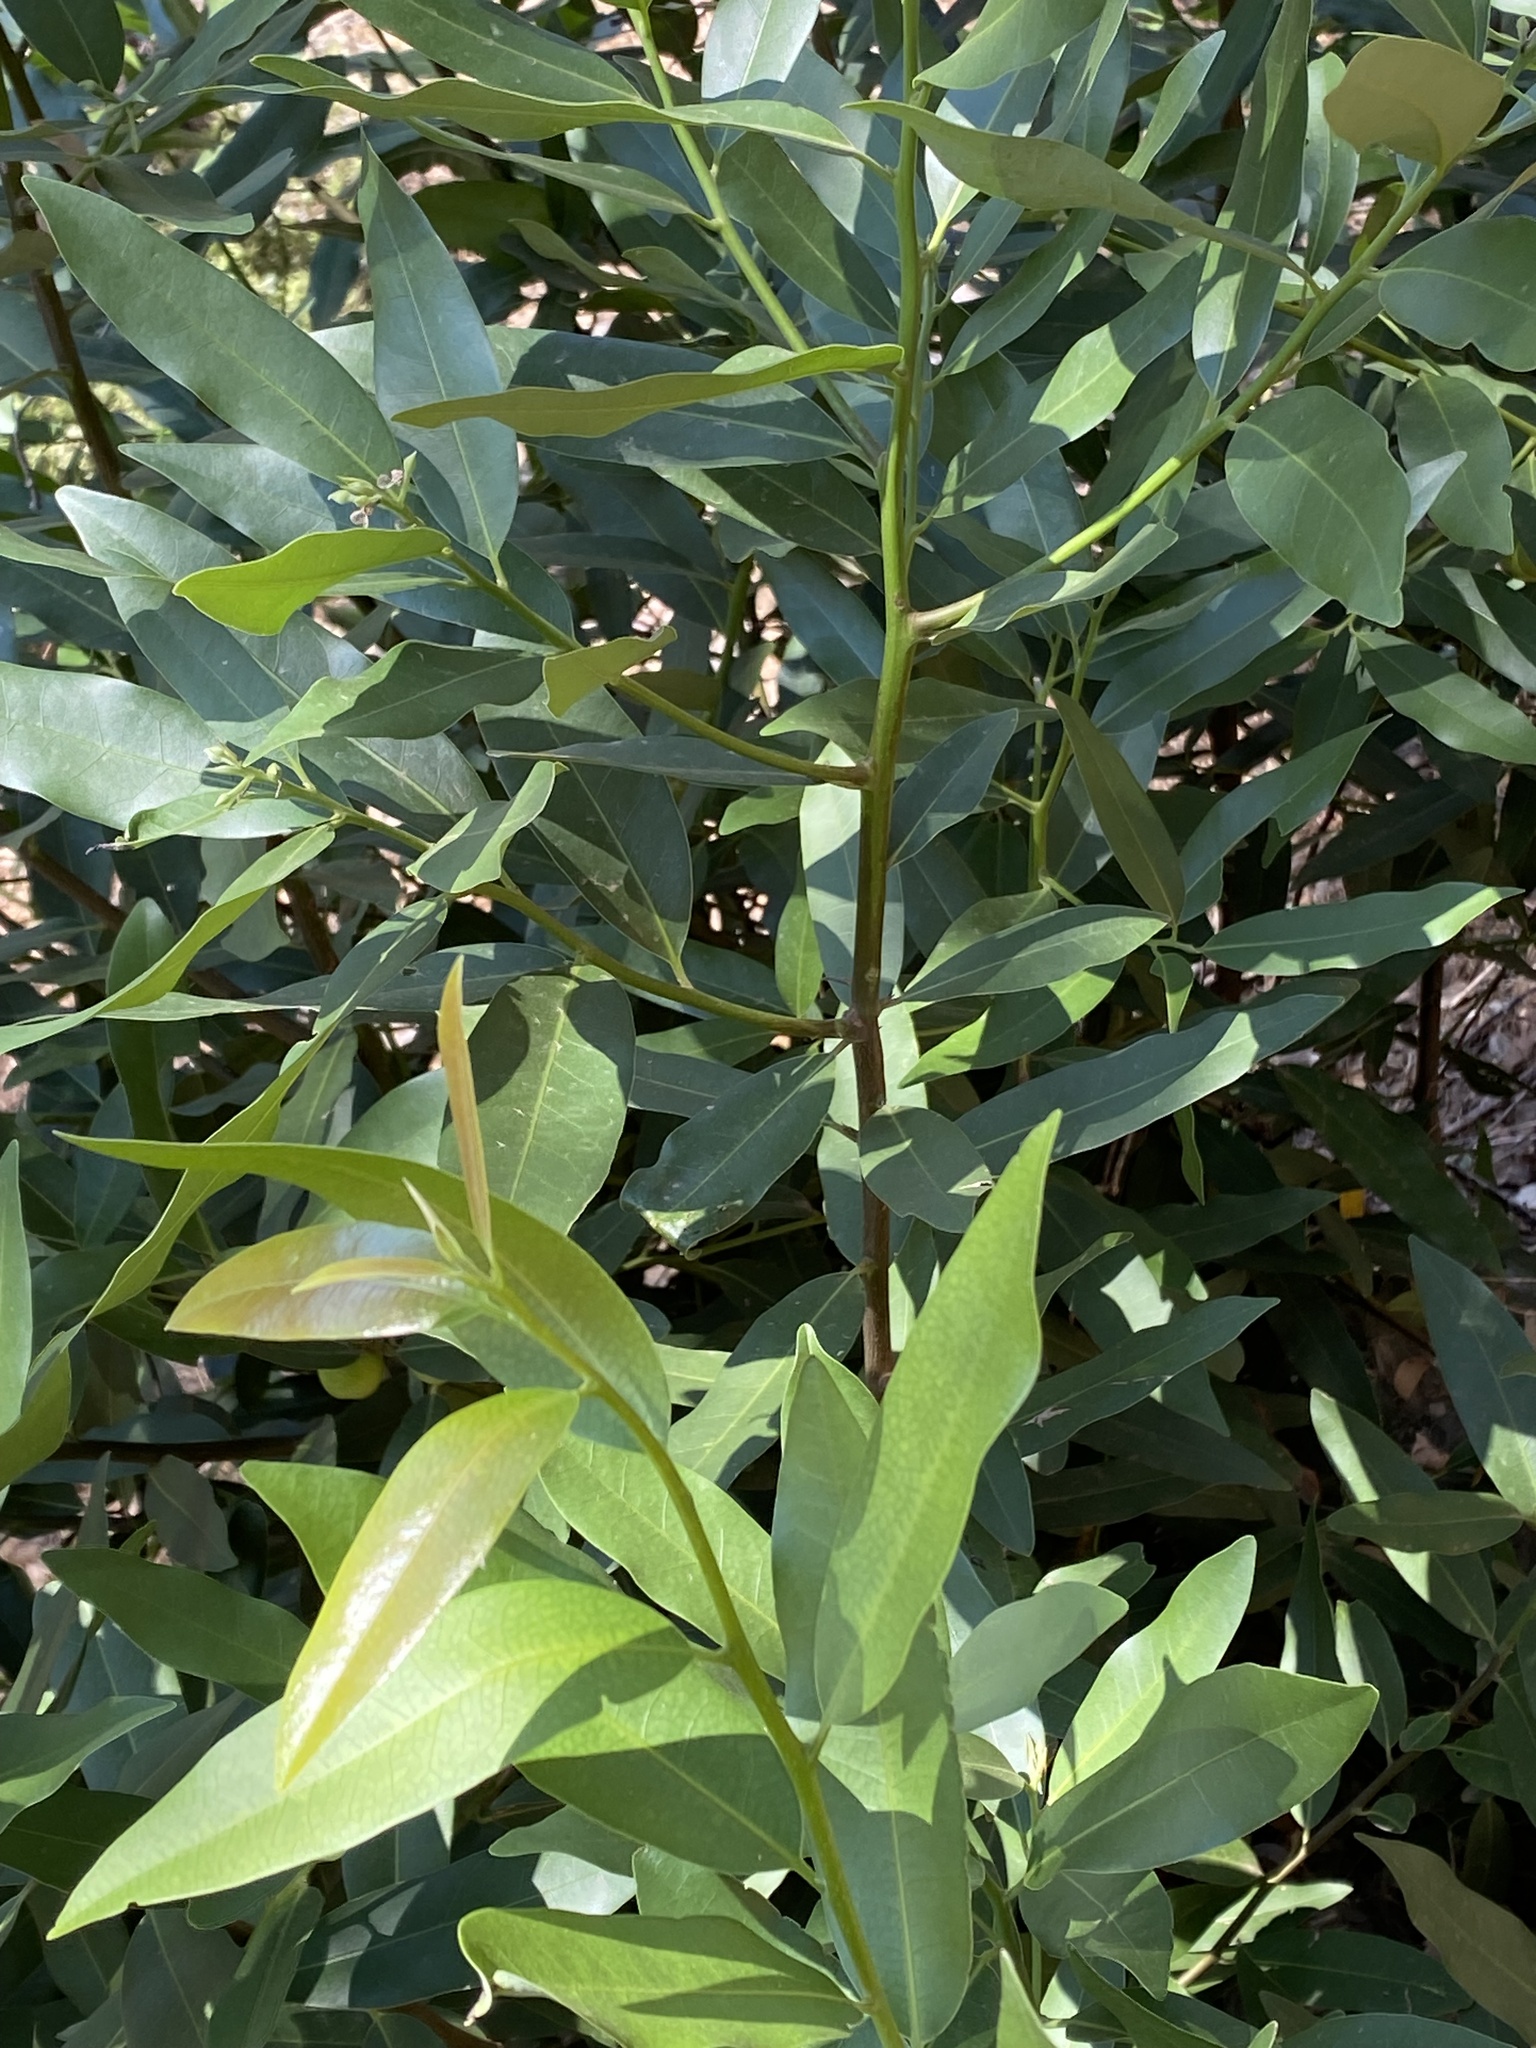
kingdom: Plantae
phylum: Tracheophyta
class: Magnoliopsida
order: Laurales
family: Lauraceae
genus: Umbellularia
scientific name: Umbellularia californica
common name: California bay
